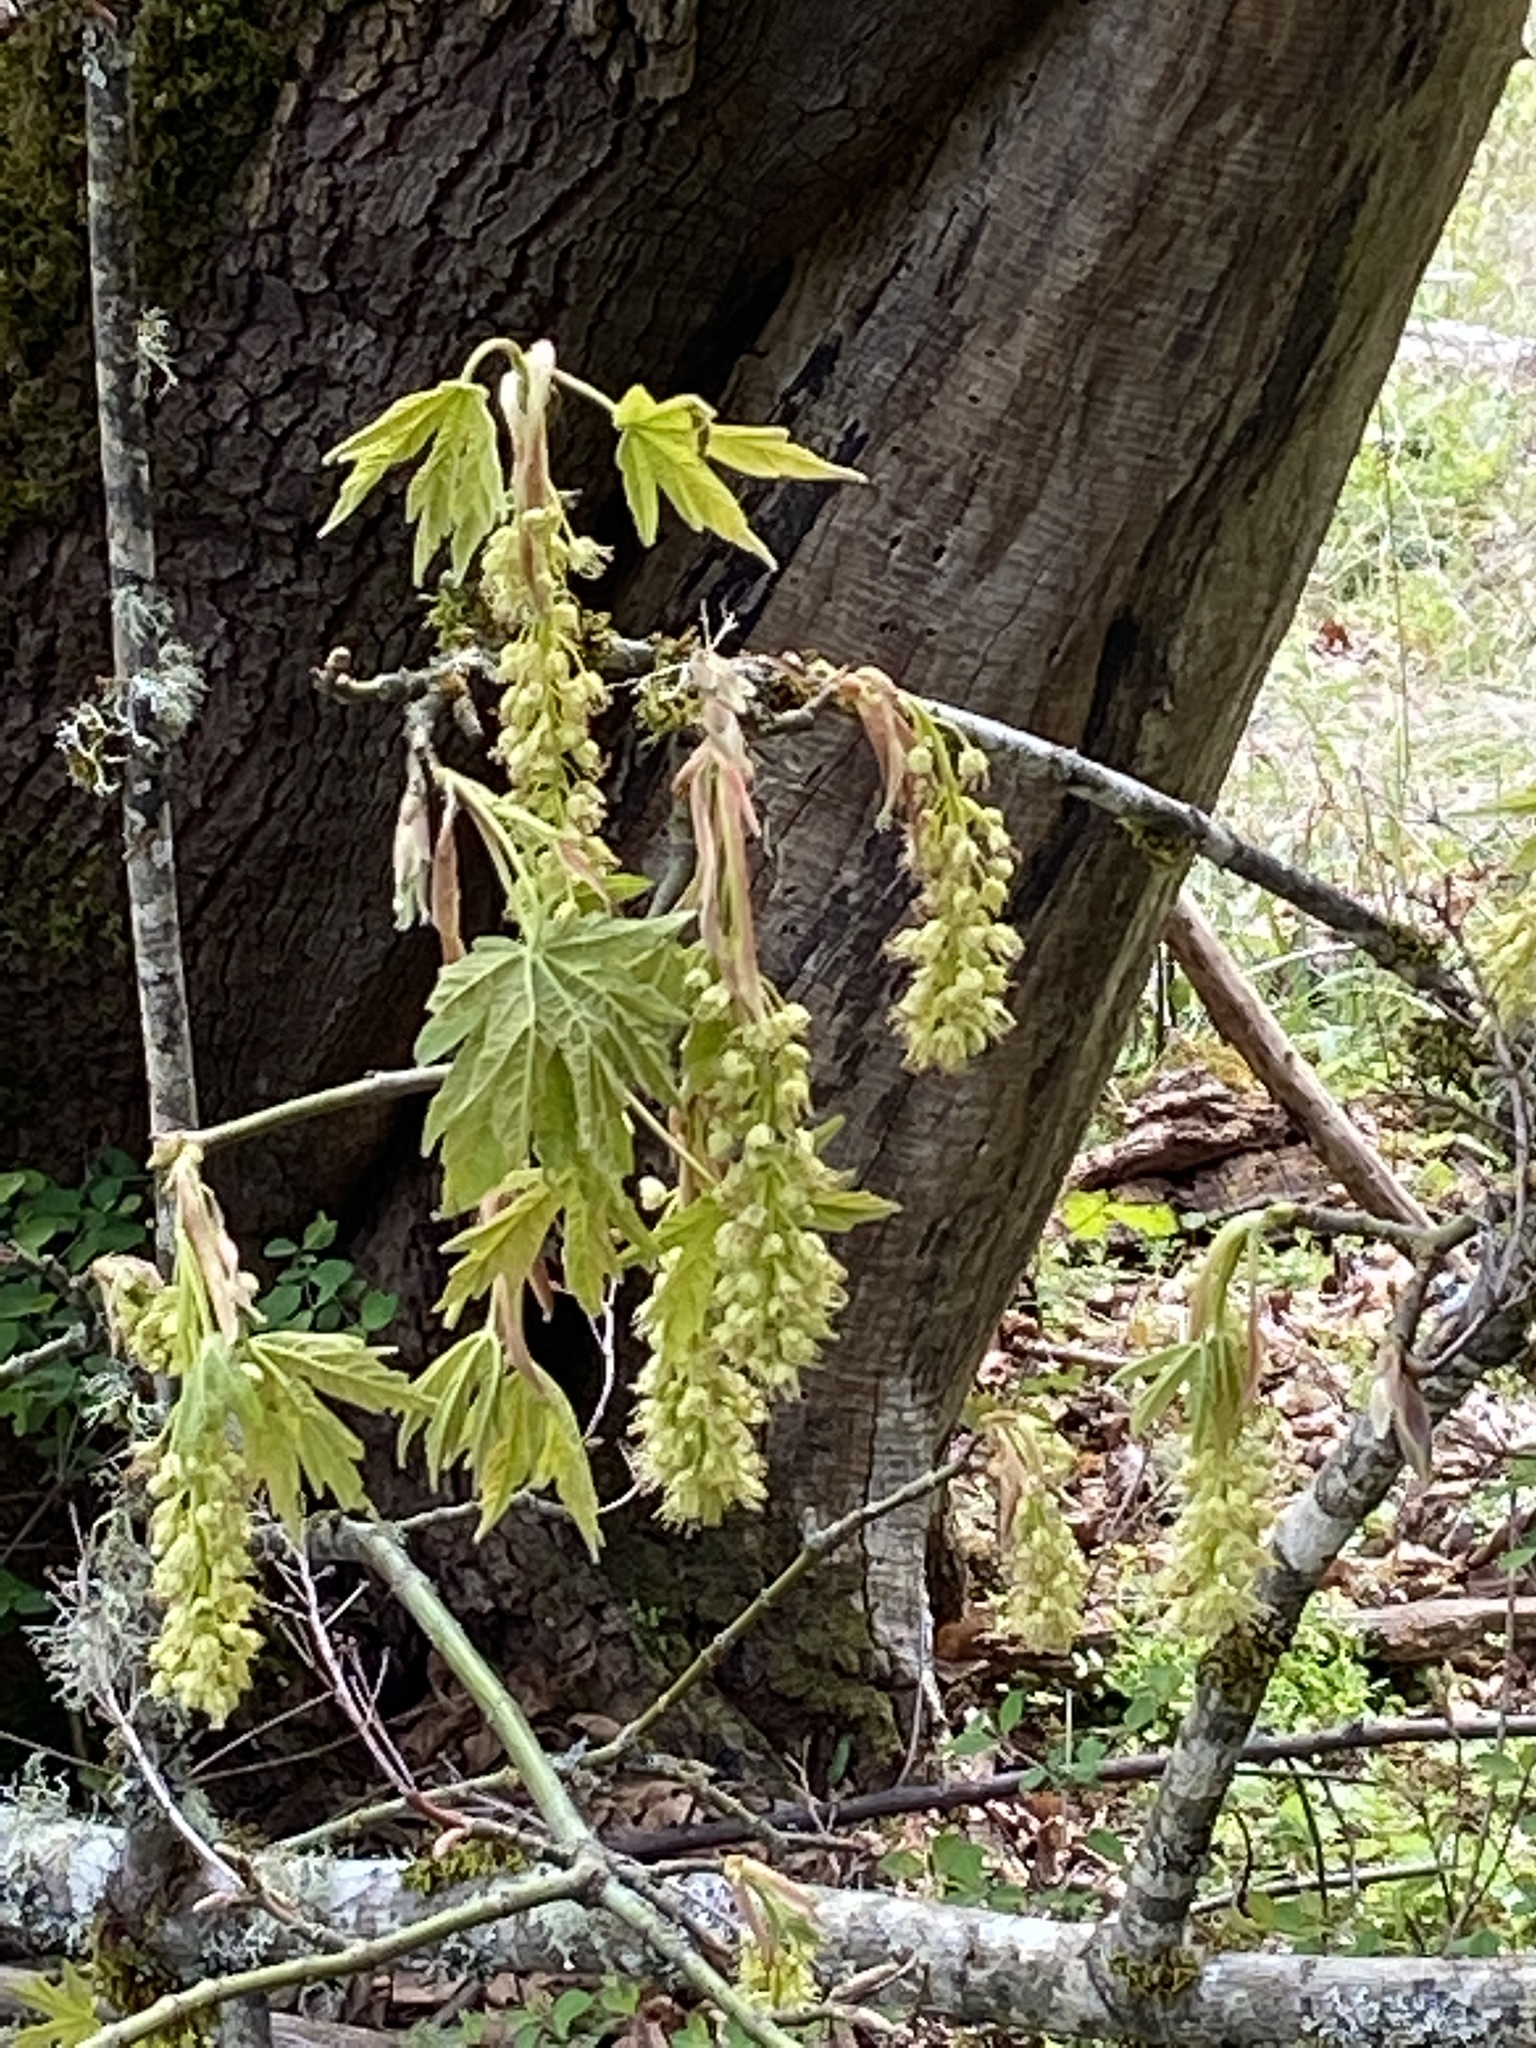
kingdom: Plantae
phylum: Tracheophyta
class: Magnoliopsida
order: Sapindales
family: Sapindaceae
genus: Acer
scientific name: Acer macrophyllum
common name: Oregon maple
